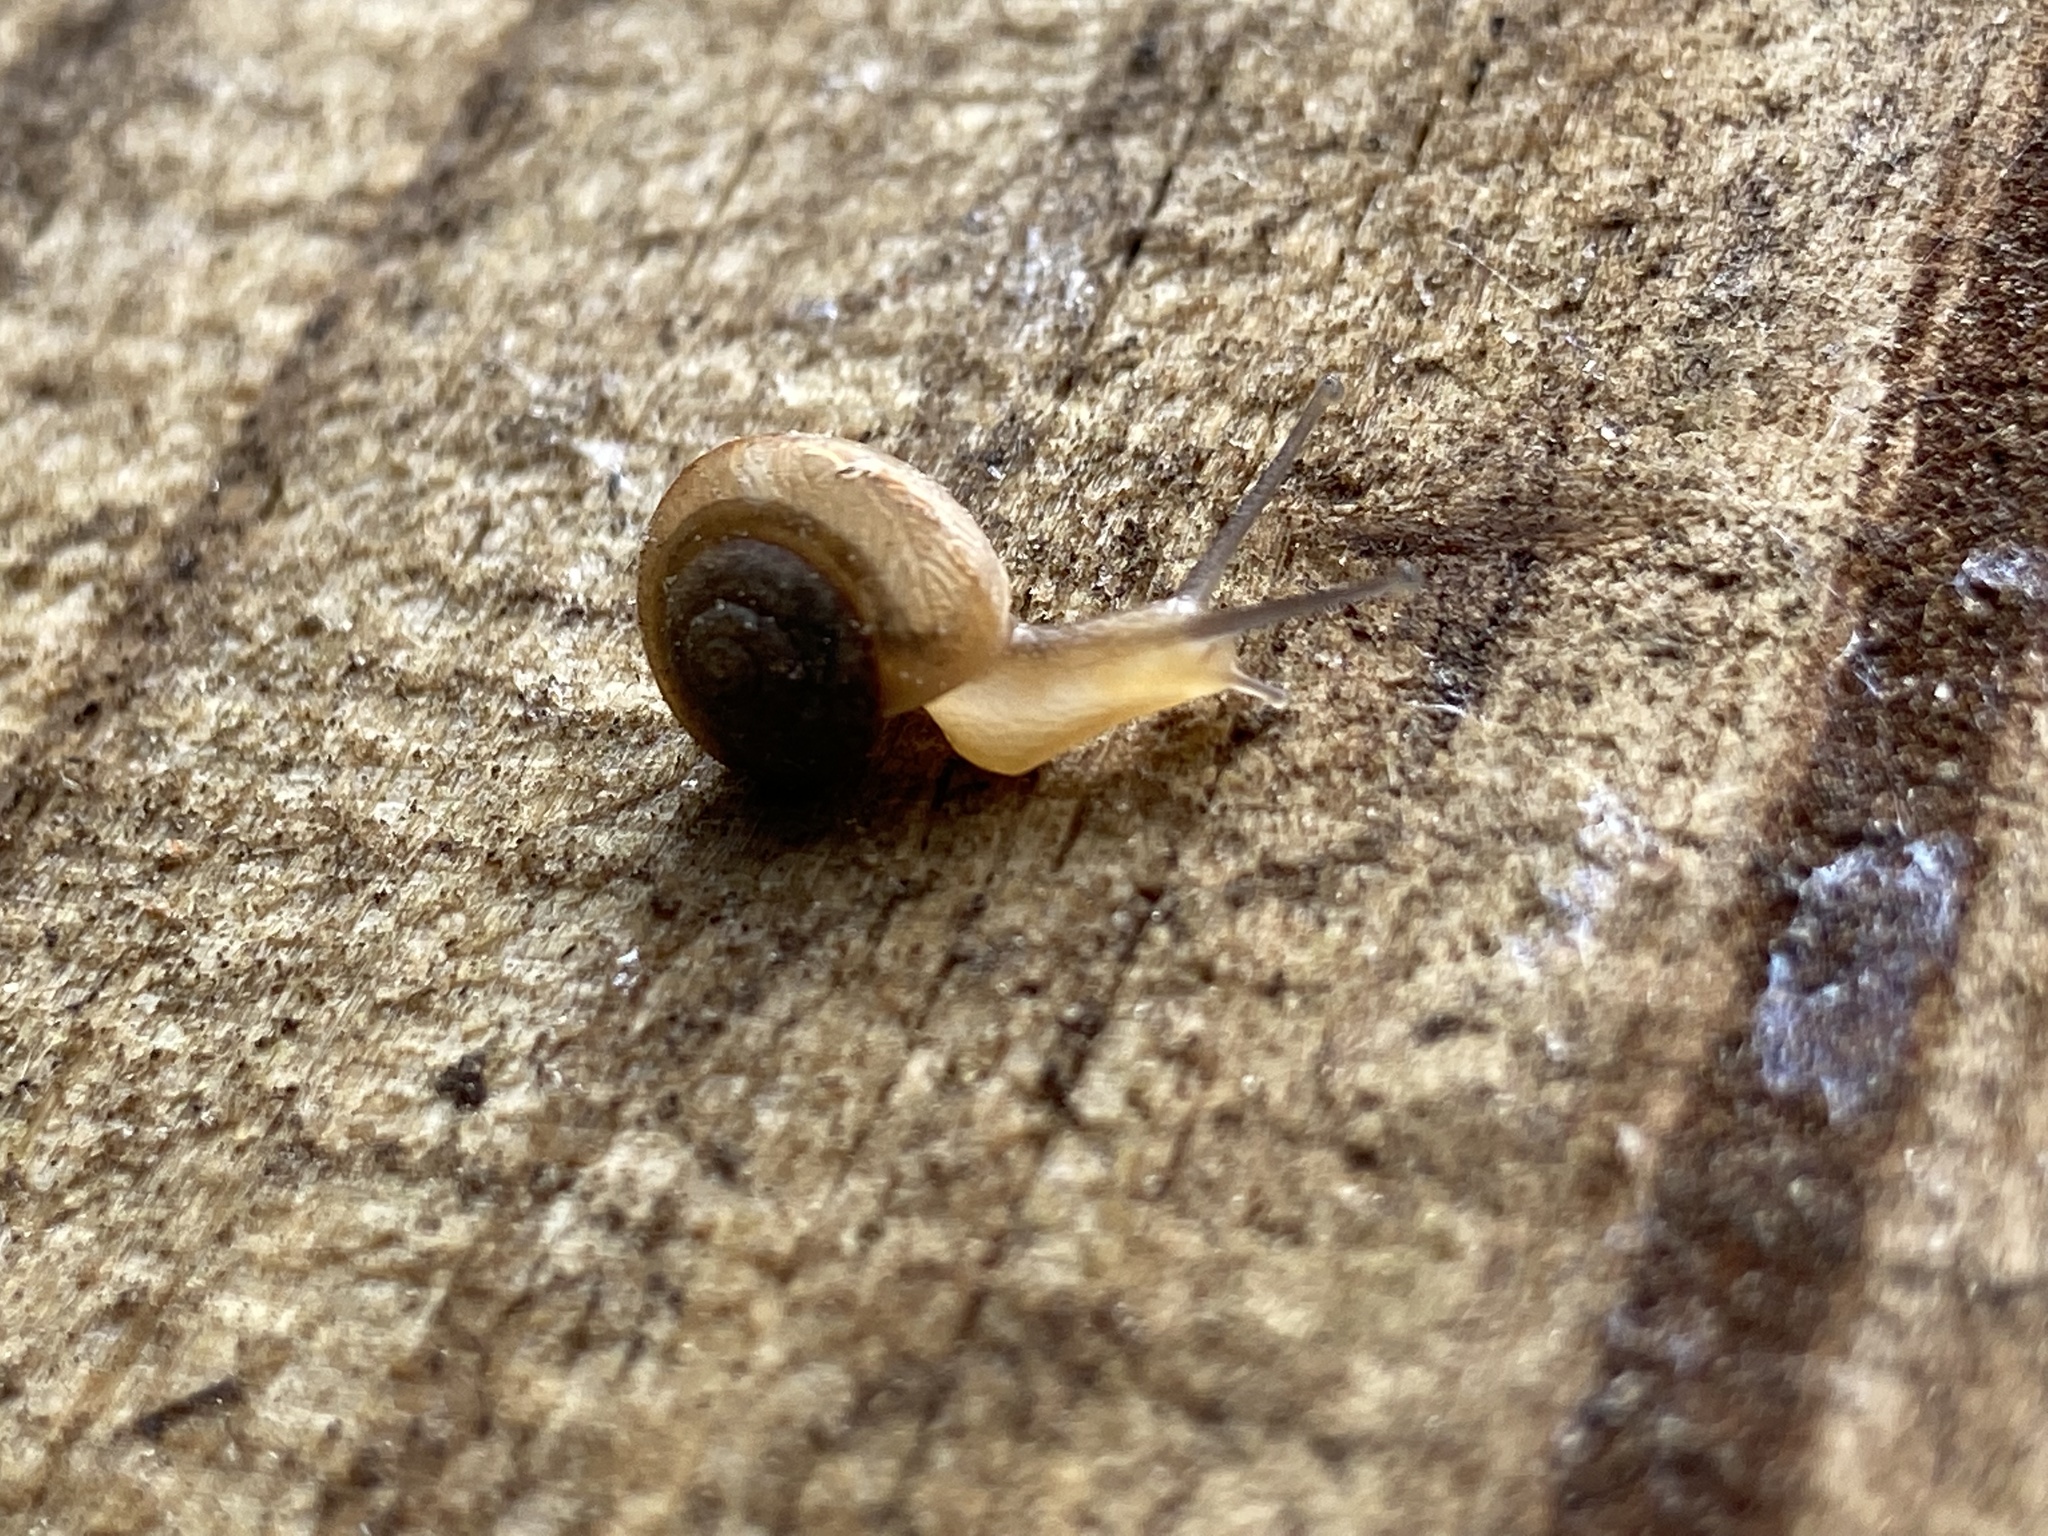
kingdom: Animalia
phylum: Mollusca
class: Gastropoda
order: Stylommatophora
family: Camaenidae
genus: Bradybaena
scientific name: Bradybaena similaris
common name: Asian trampsnail
